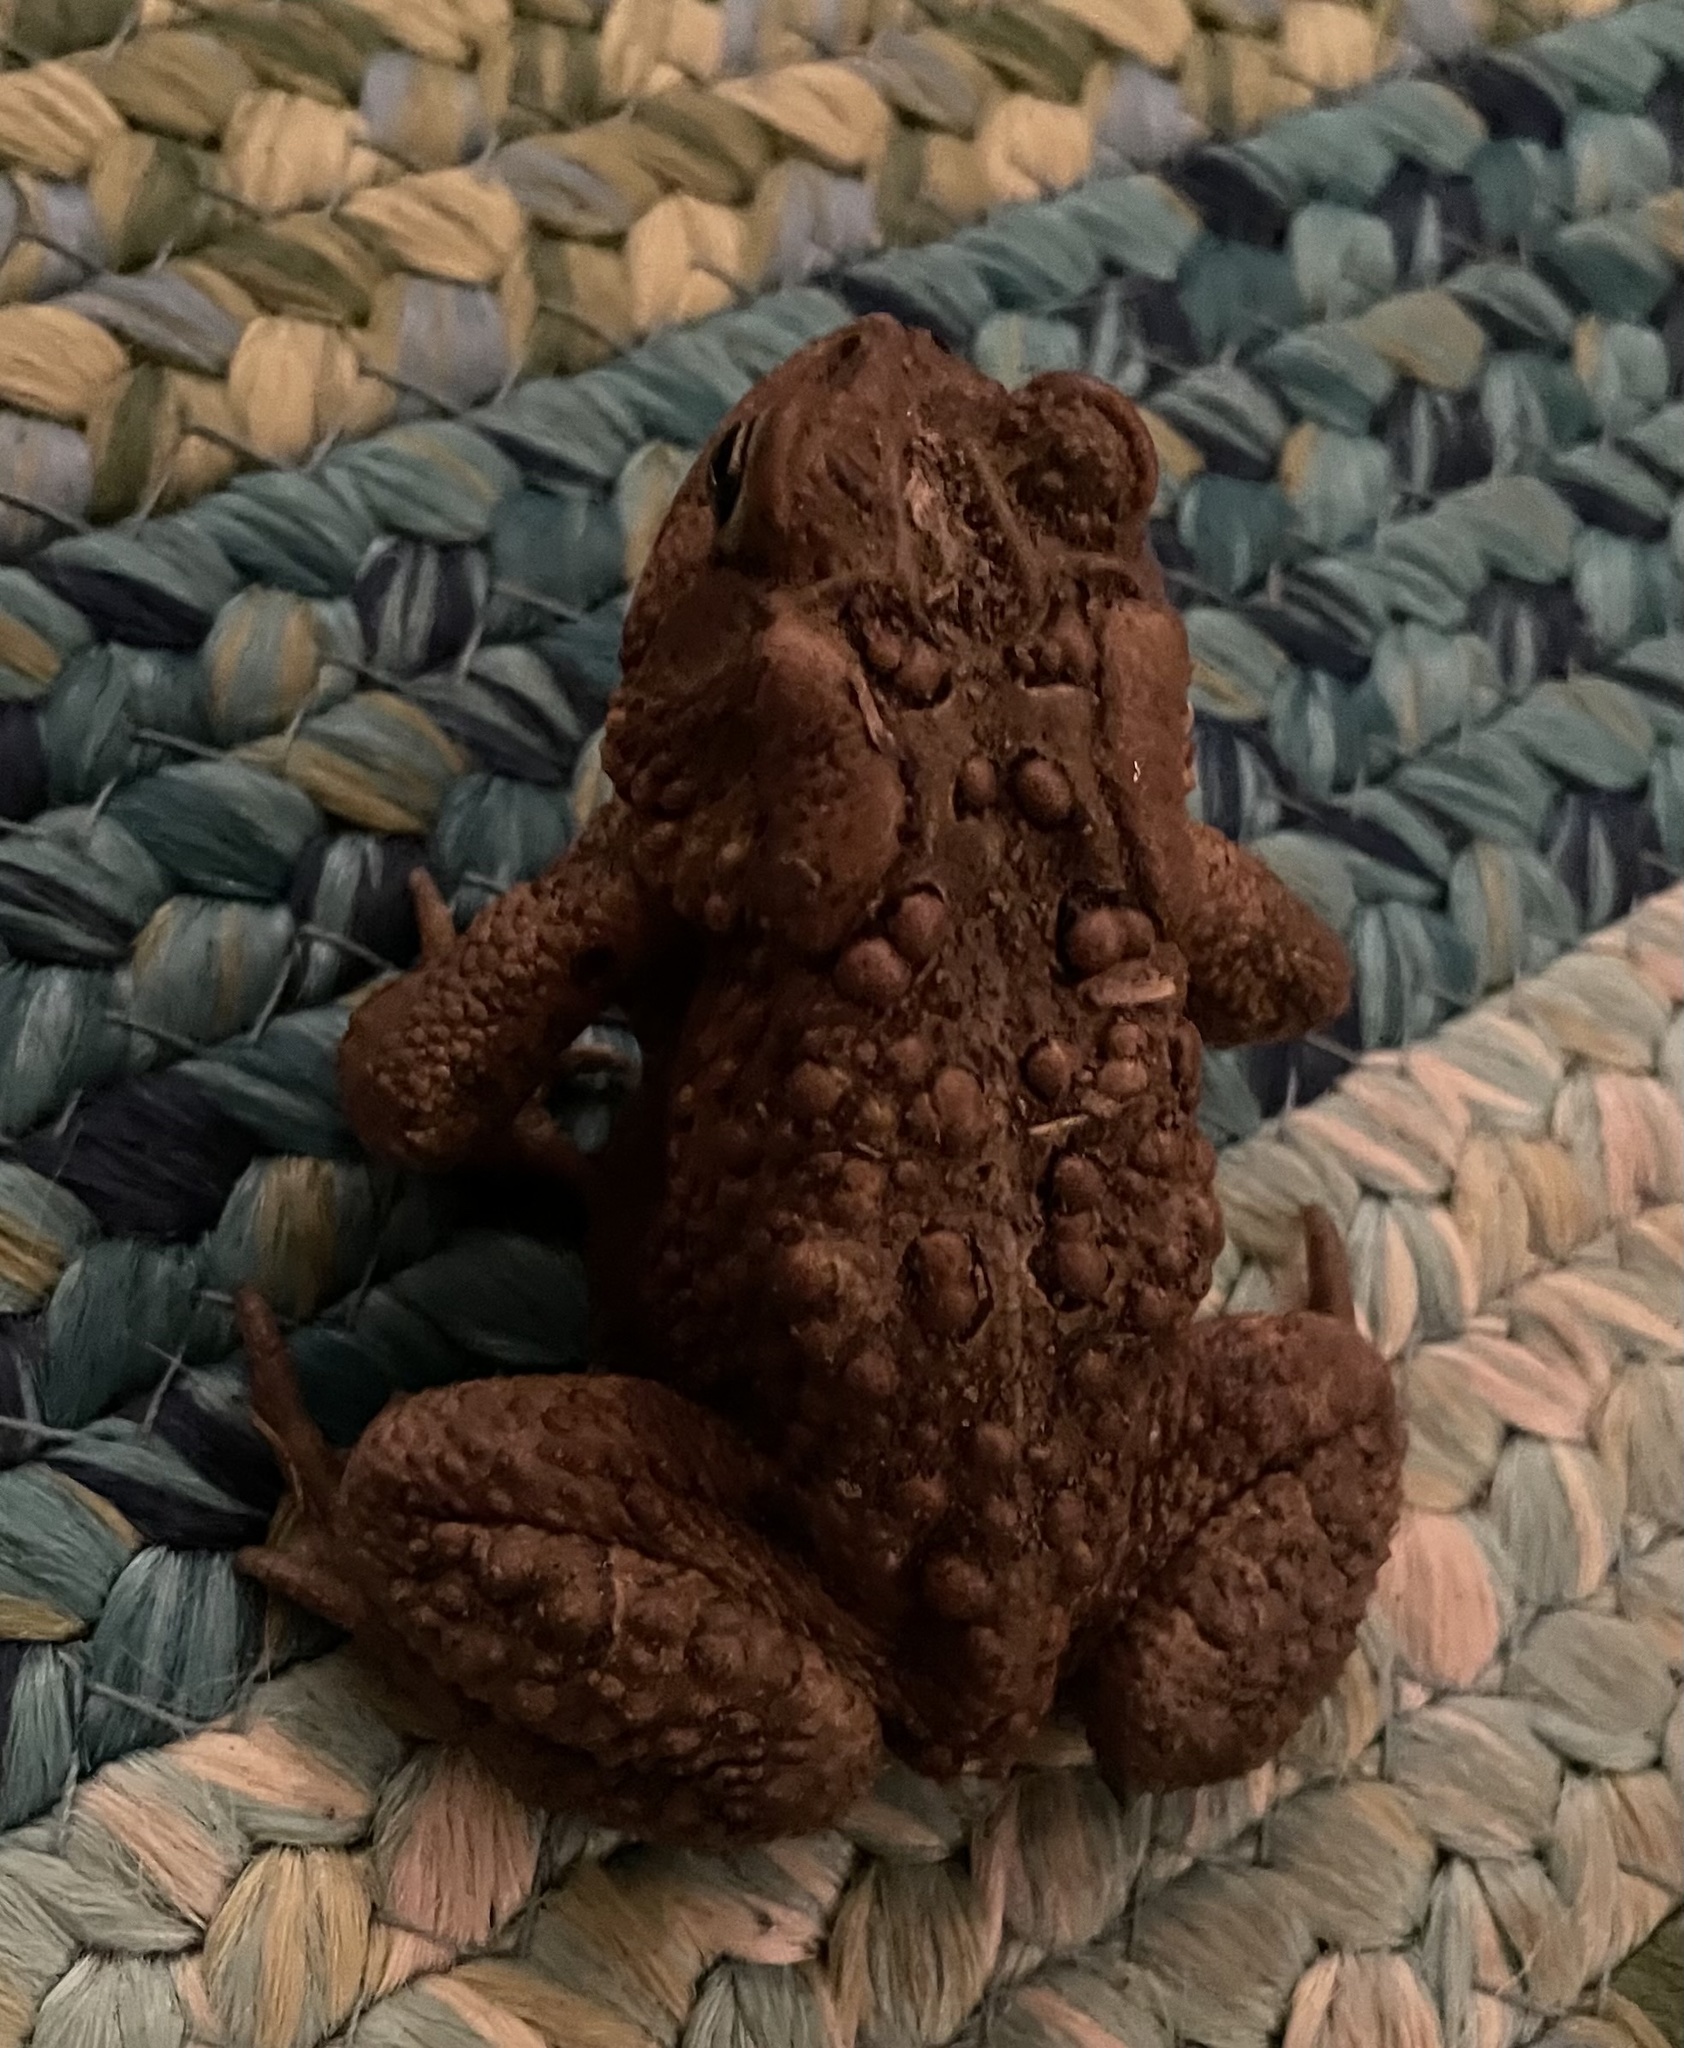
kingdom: Animalia
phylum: Chordata
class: Amphibia
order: Anura
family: Bufonidae
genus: Anaxyrus
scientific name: Anaxyrus americanus
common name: American toad
